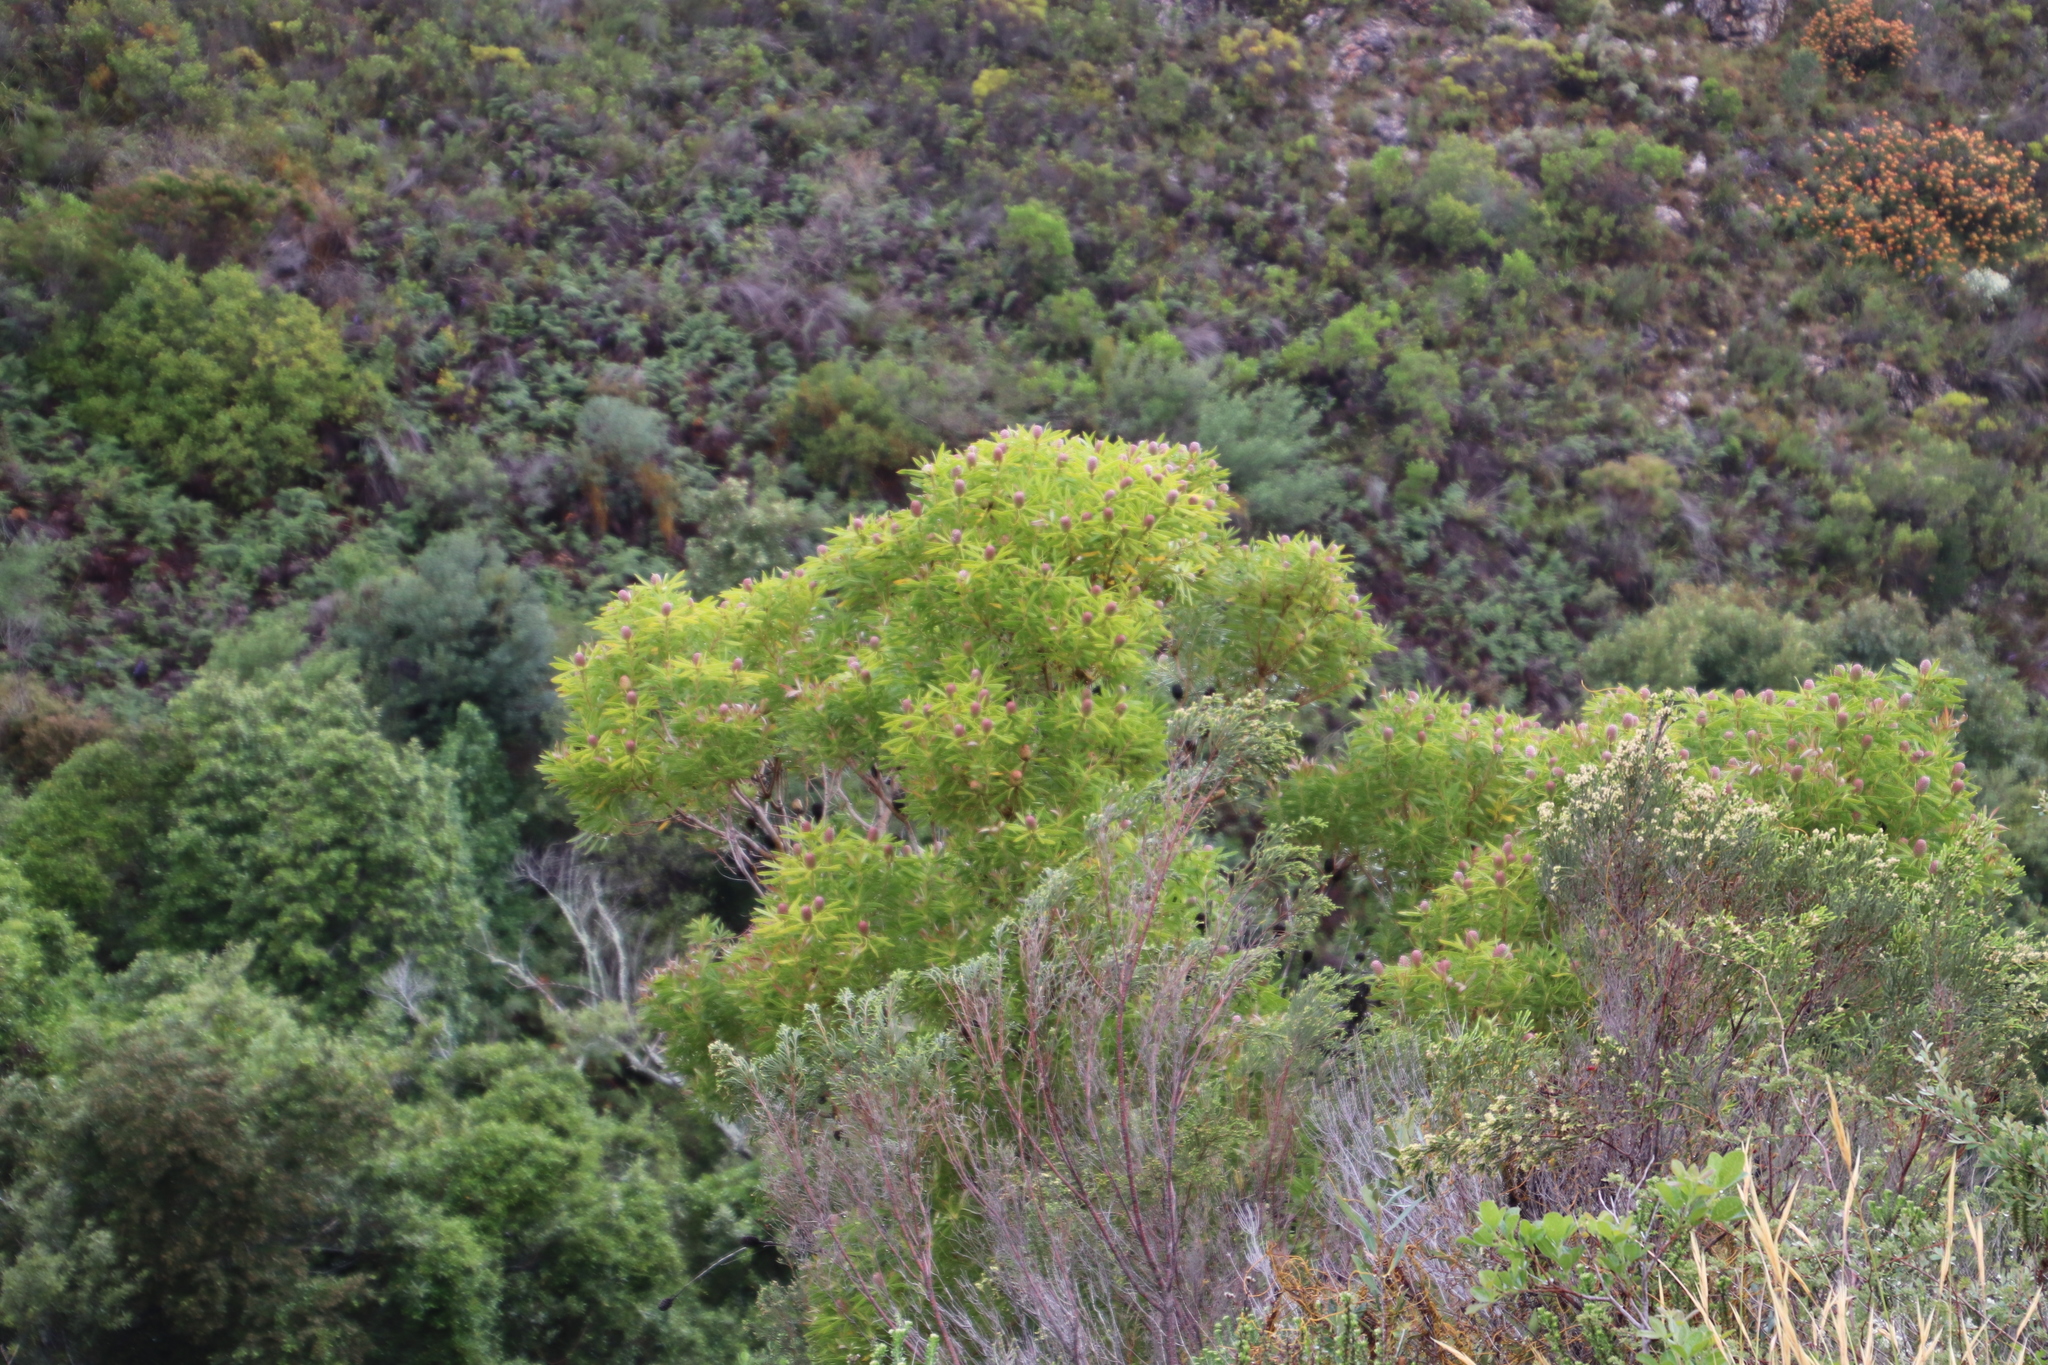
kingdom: Plantae
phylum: Tracheophyta
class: Magnoliopsida
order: Proteales
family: Proteaceae
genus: Leucadendron
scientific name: Leucadendron coniferum
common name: Dune conebush
